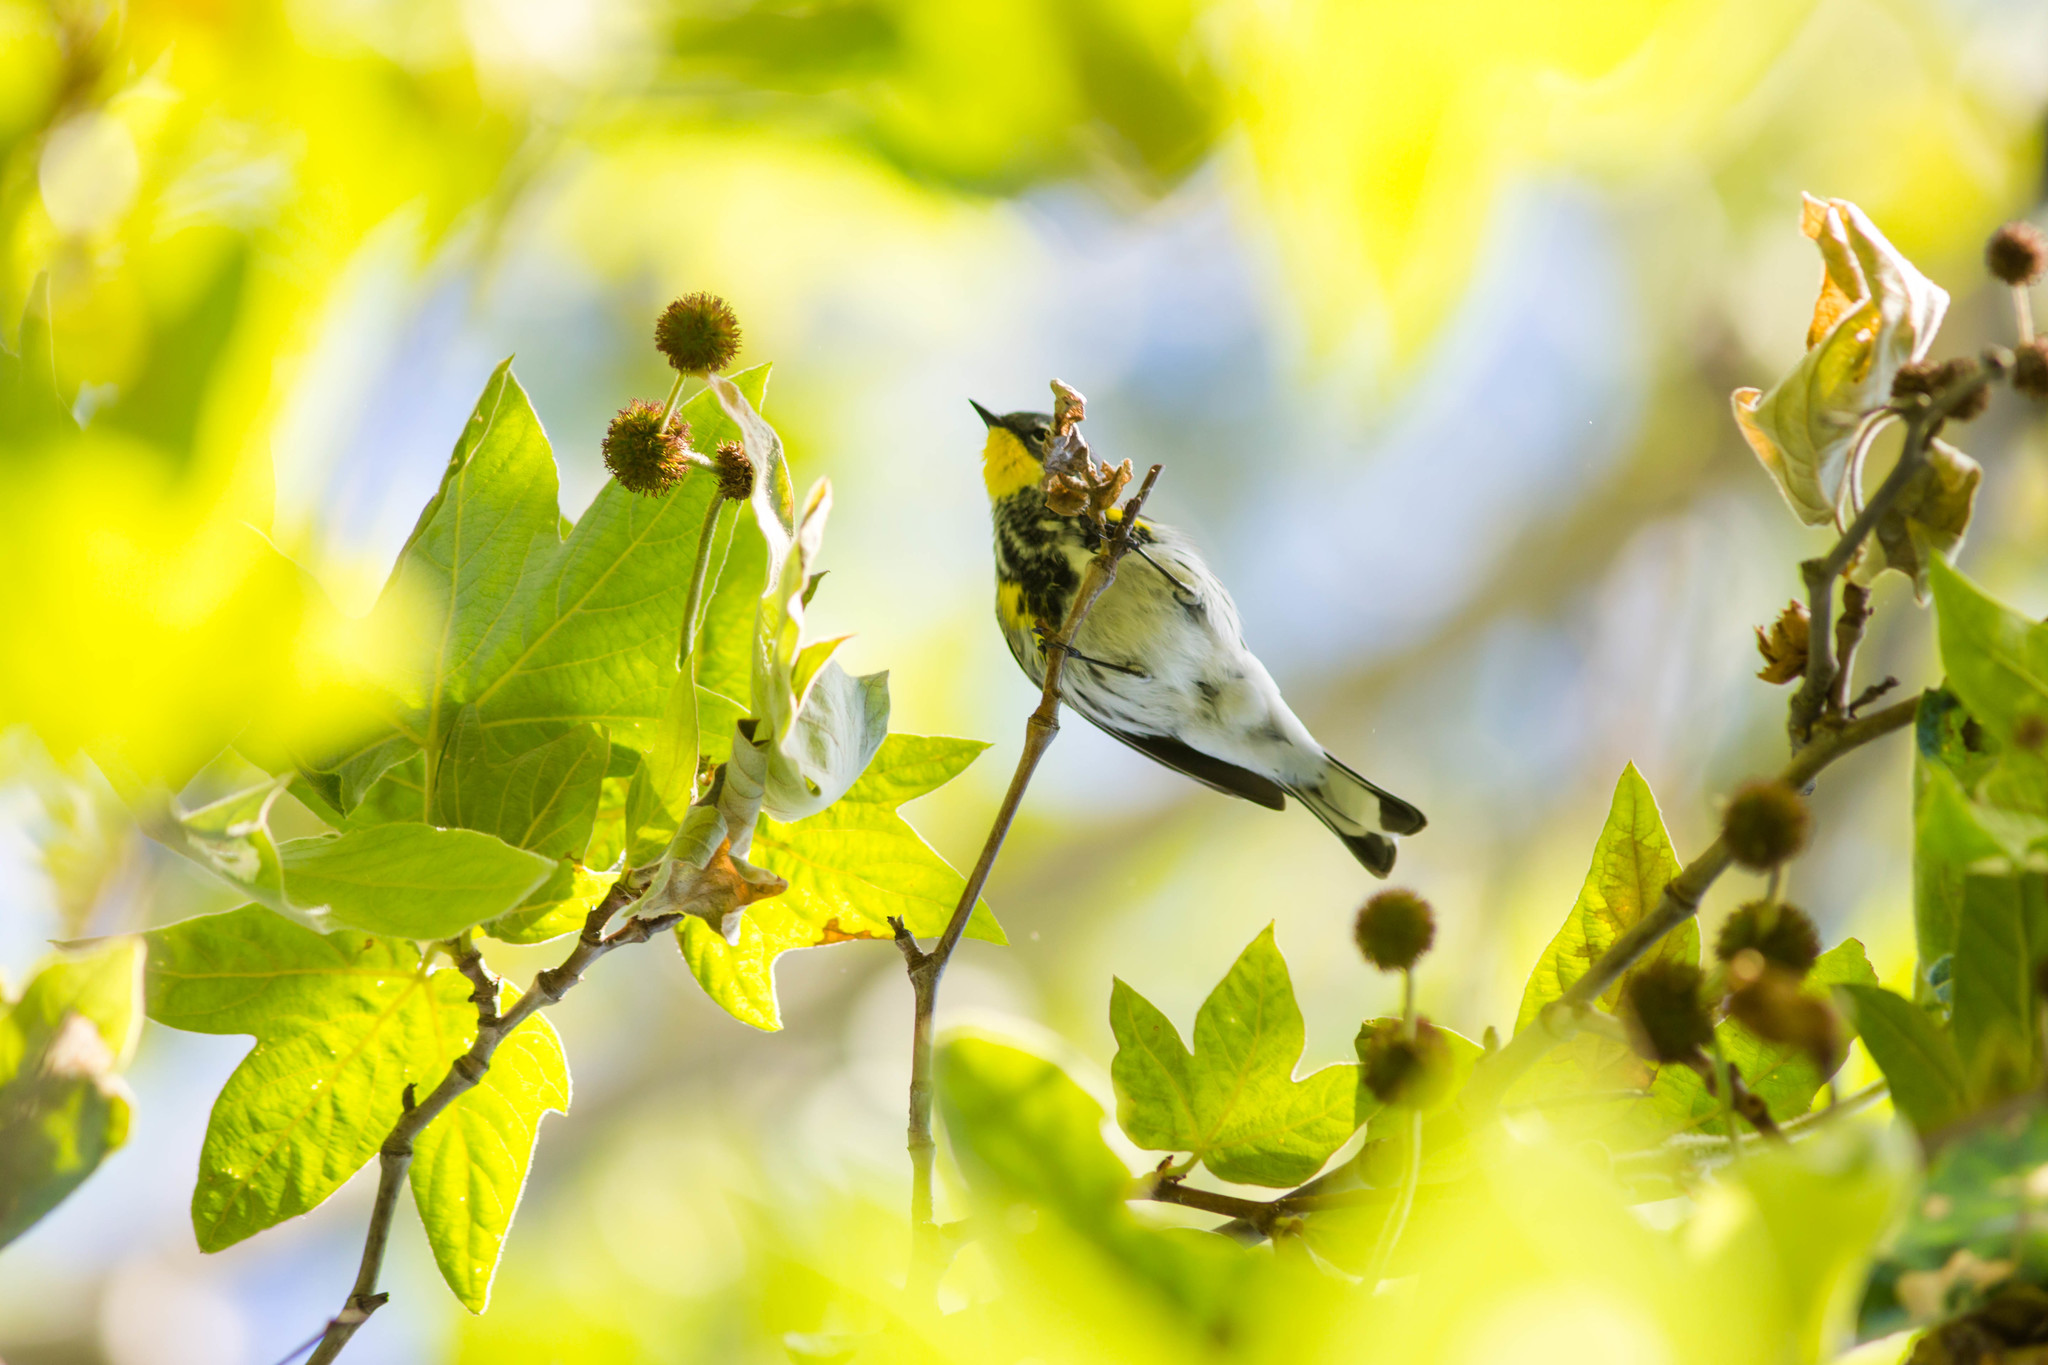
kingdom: Animalia
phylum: Chordata
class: Aves
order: Passeriformes
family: Parulidae
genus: Setophaga
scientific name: Setophaga coronata
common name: Myrtle warbler
